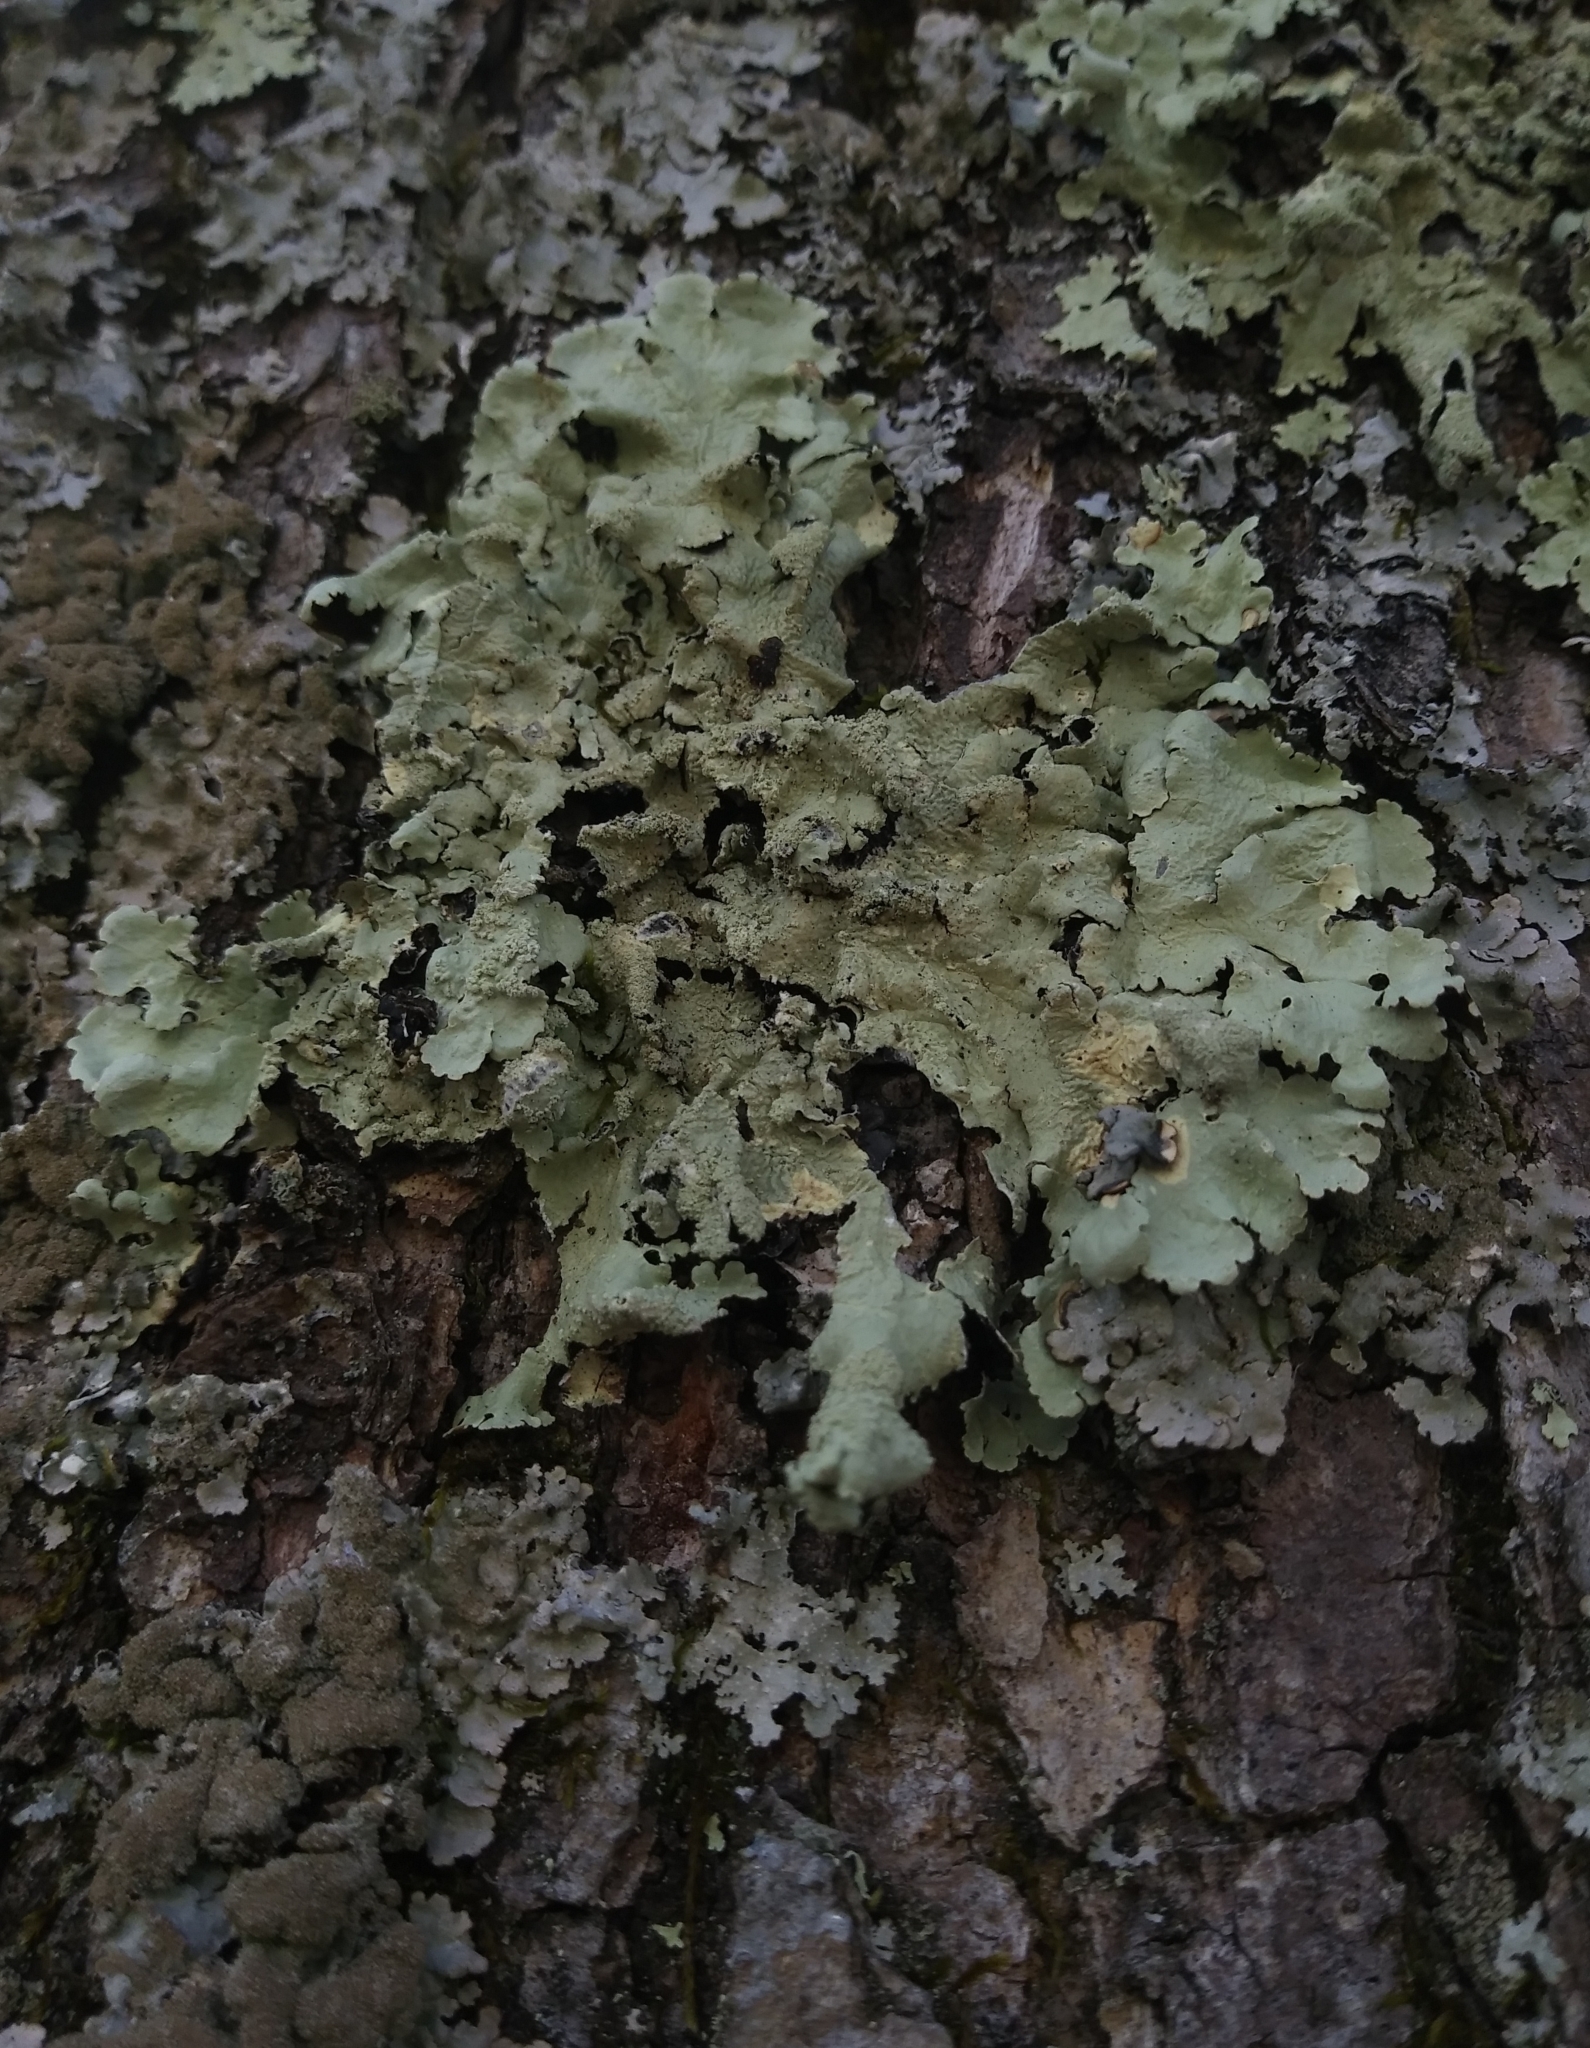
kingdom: Fungi
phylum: Ascomycota
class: Lecanoromycetes
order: Lecanorales
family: Parmeliaceae
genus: Flavoparmelia
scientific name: Flavoparmelia caperata
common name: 40-mile per hour lichen
